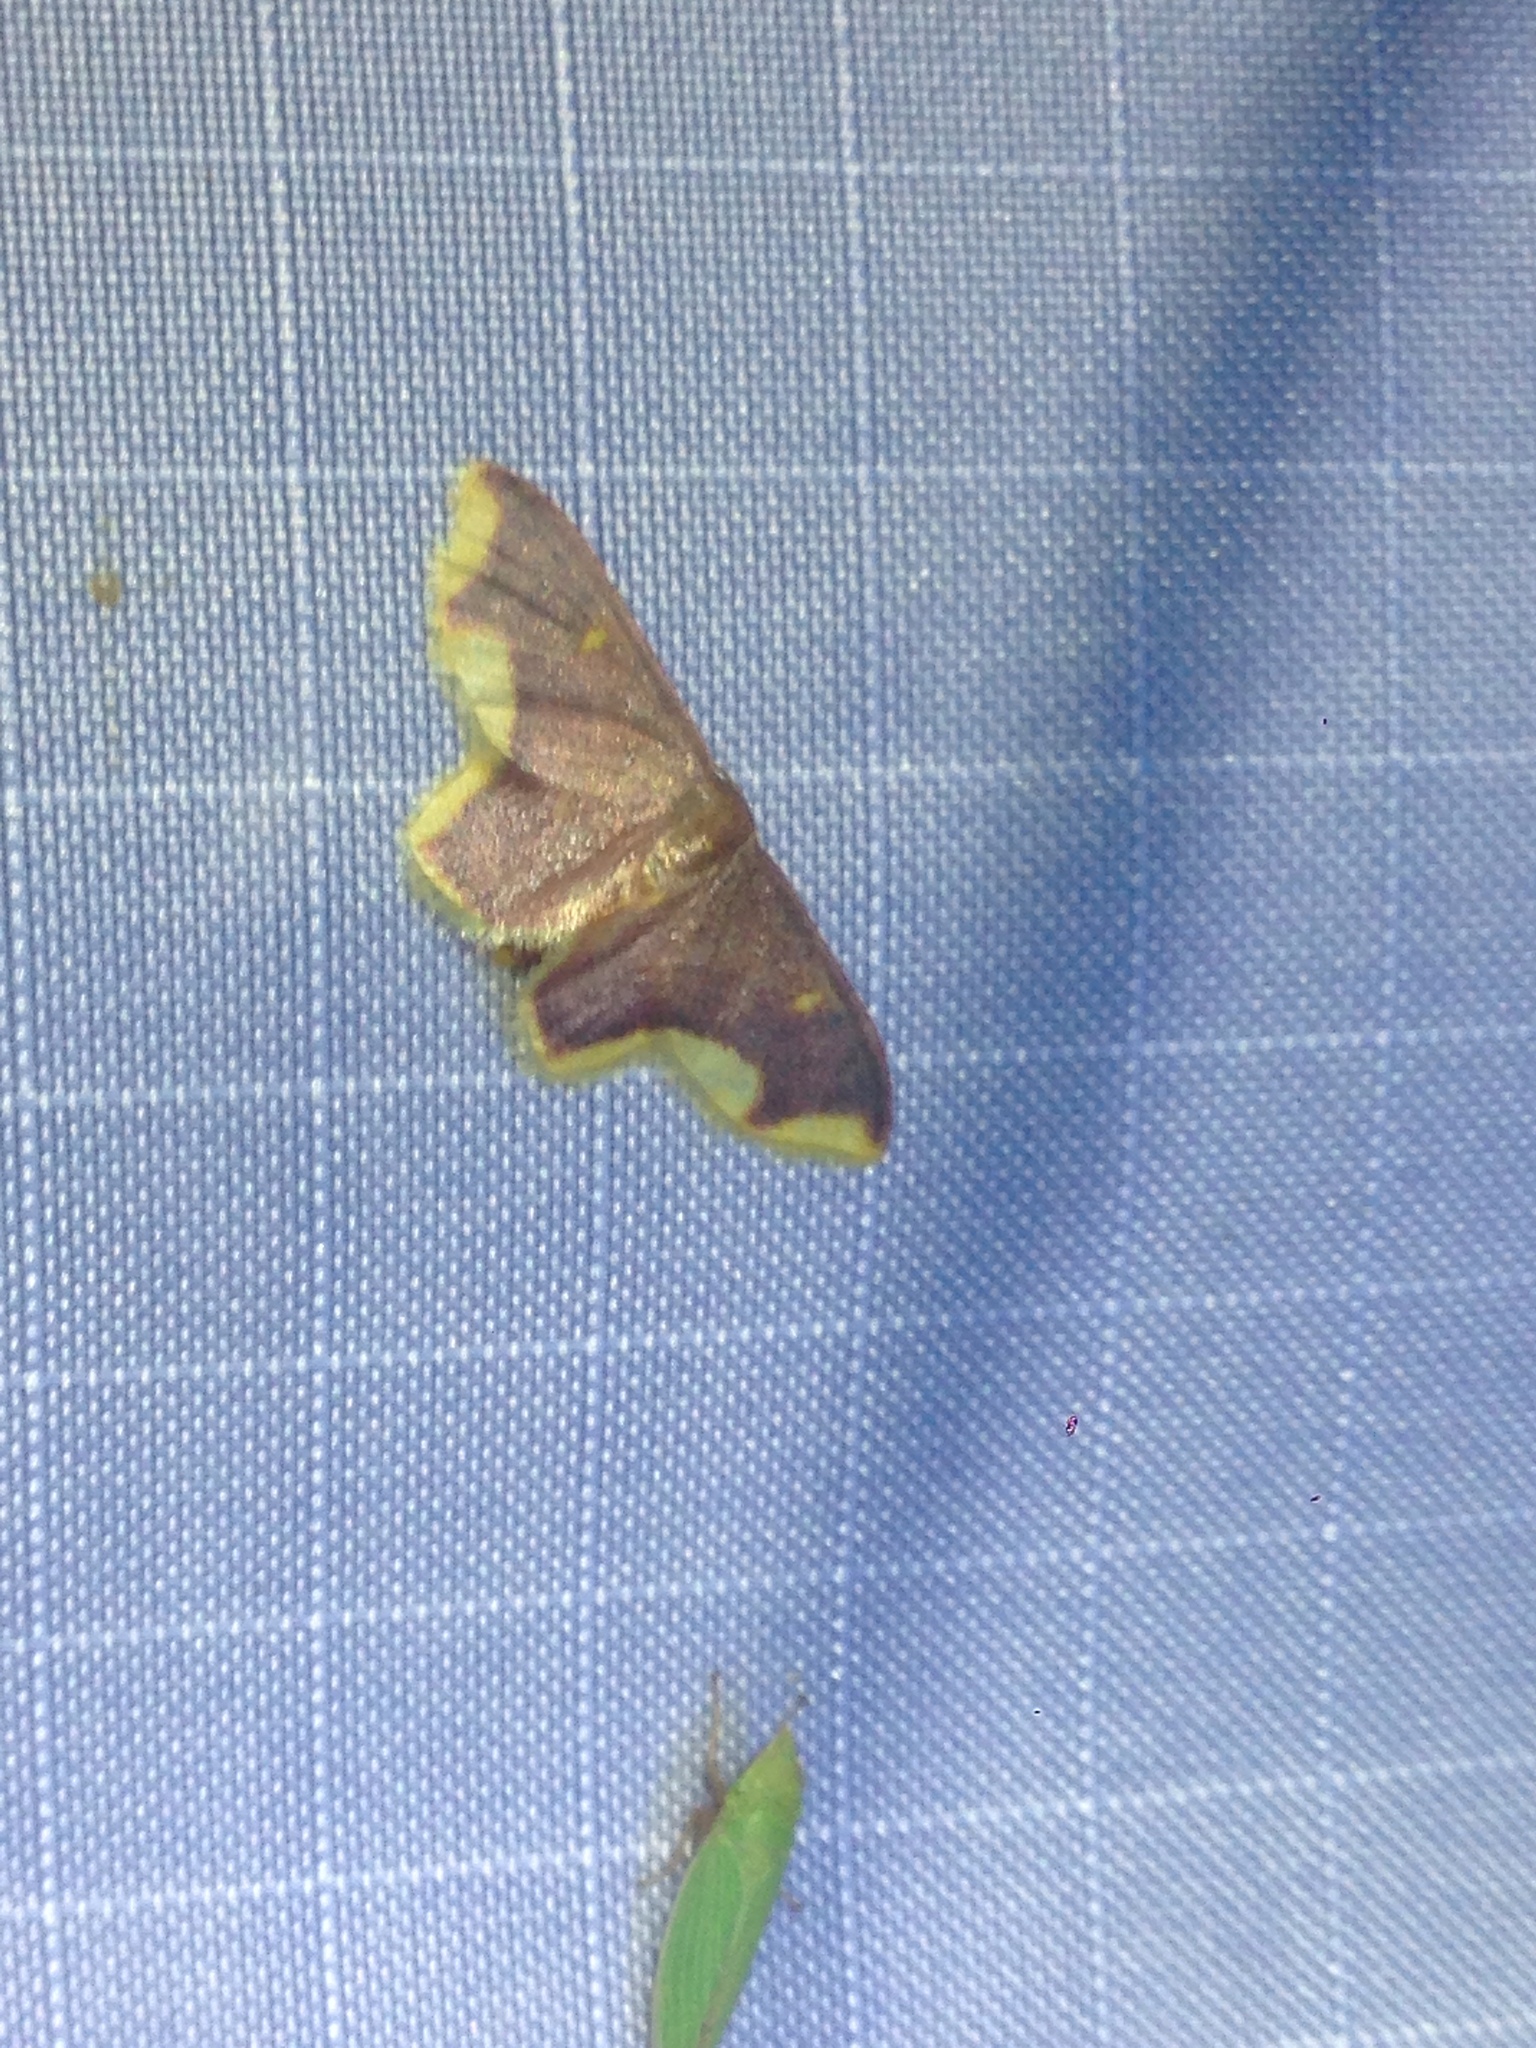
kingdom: Animalia
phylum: Arthropoda
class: Insecta
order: Lepidoptera
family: Geometridae
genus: Lophosis
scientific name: Lophosis labeculata
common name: Stained lophosis moth
